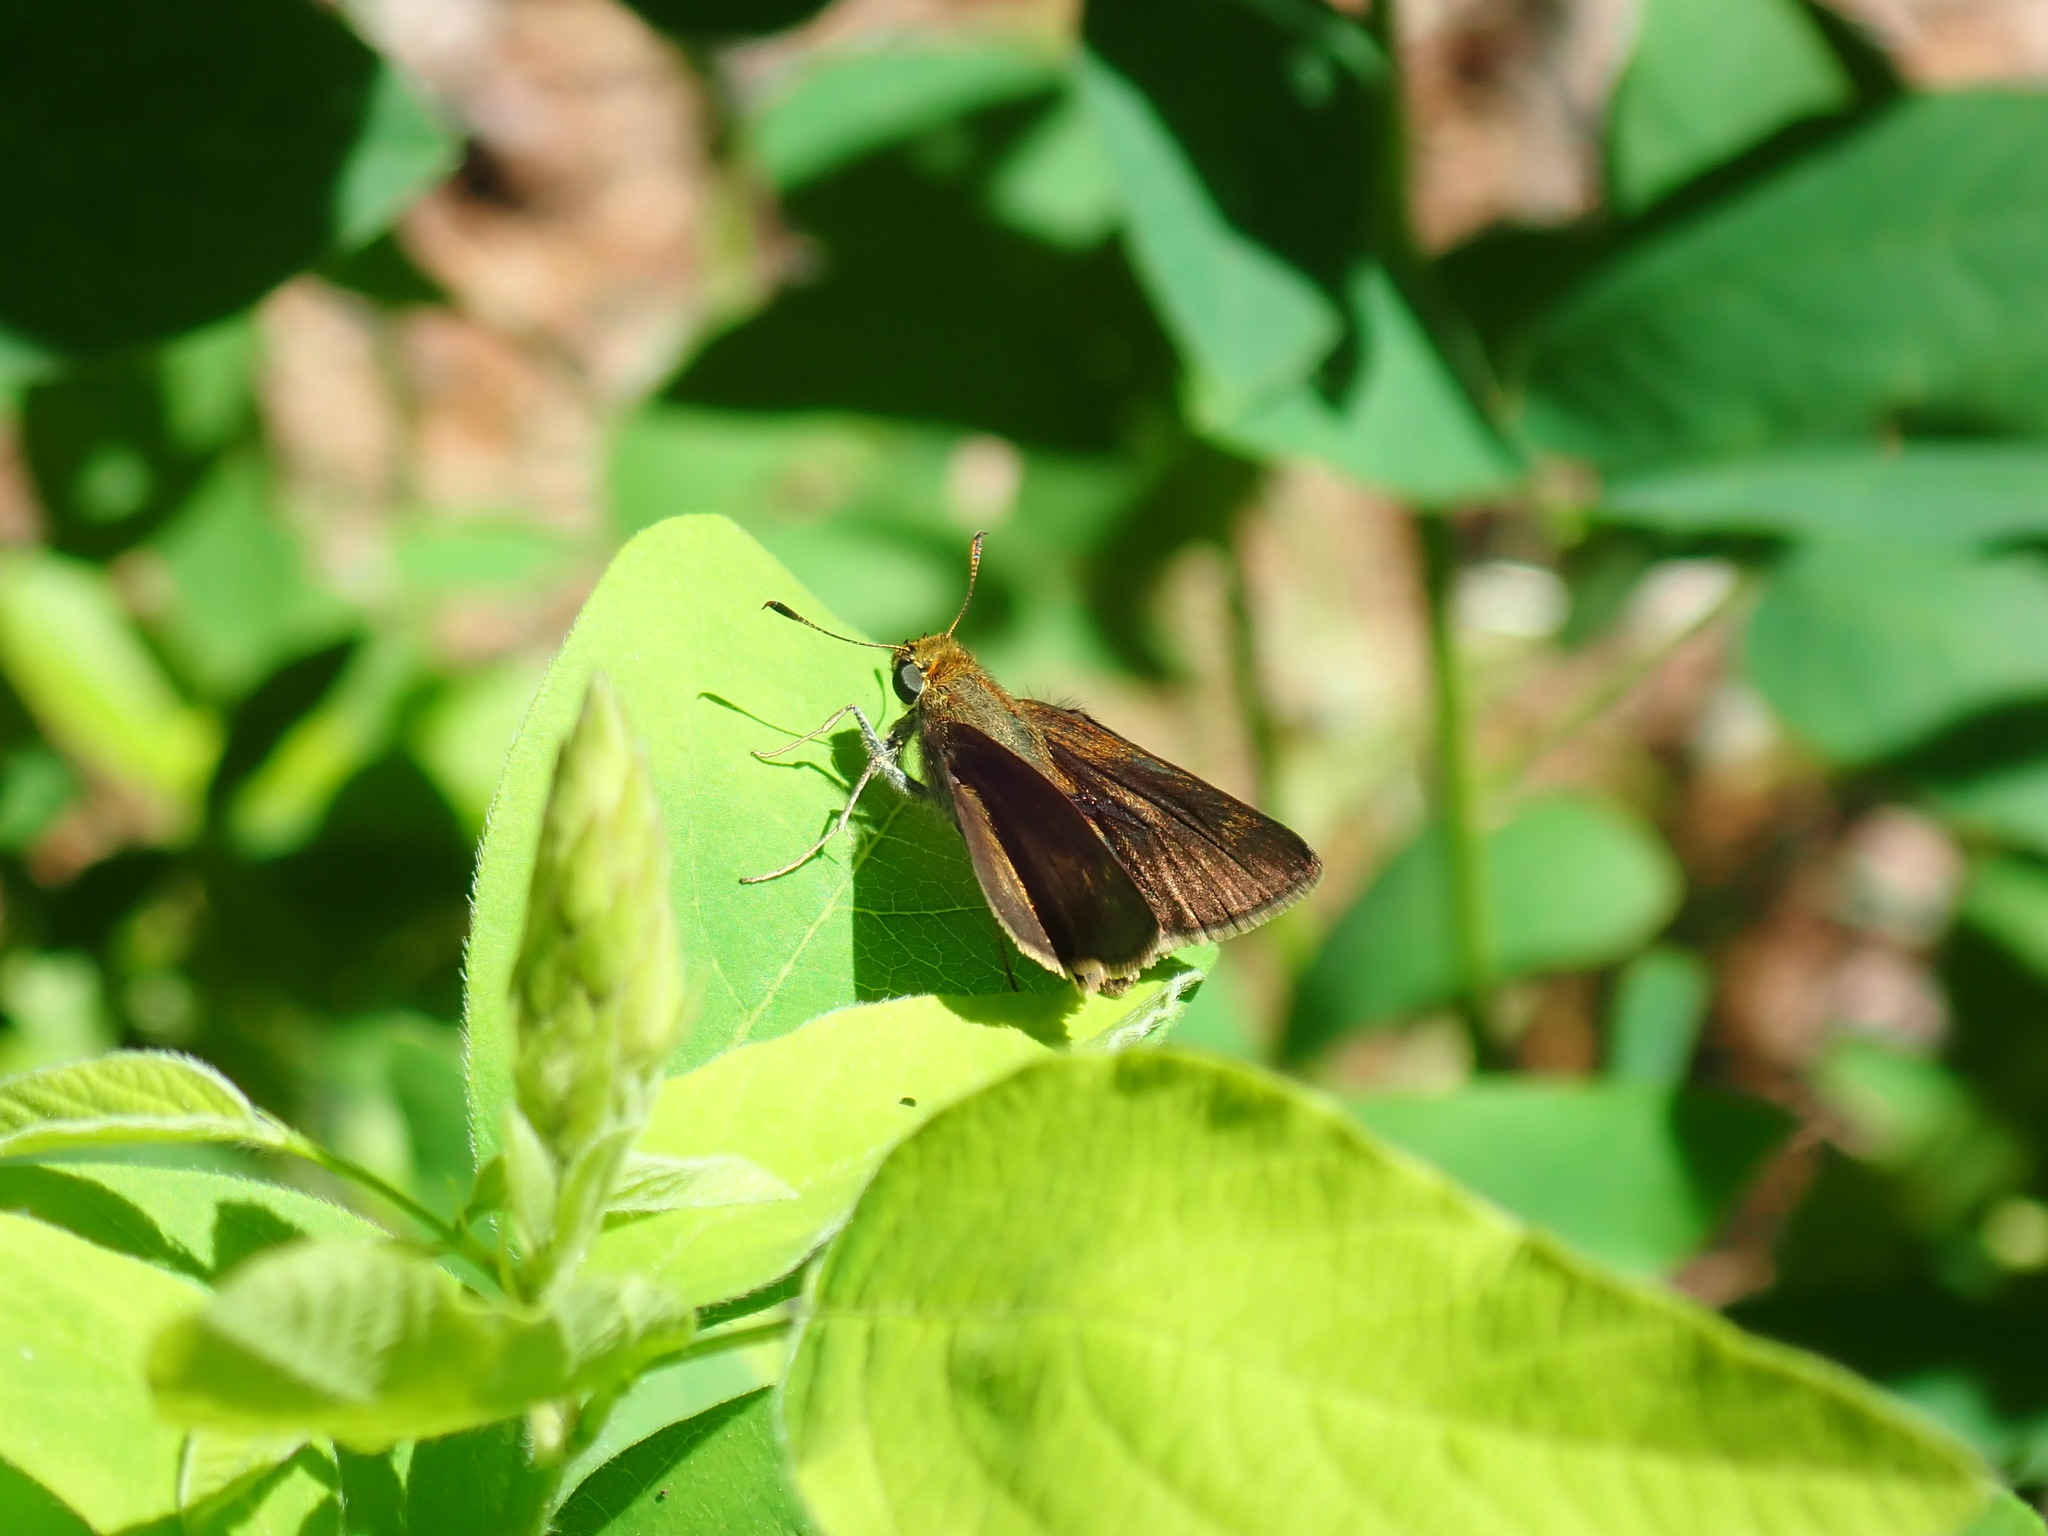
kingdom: Animalia
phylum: Arthropoda
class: Insecta
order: Lepidoptera
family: Hesperiidae
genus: Euphyes
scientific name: Euphyes vestris
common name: Dun skipper
